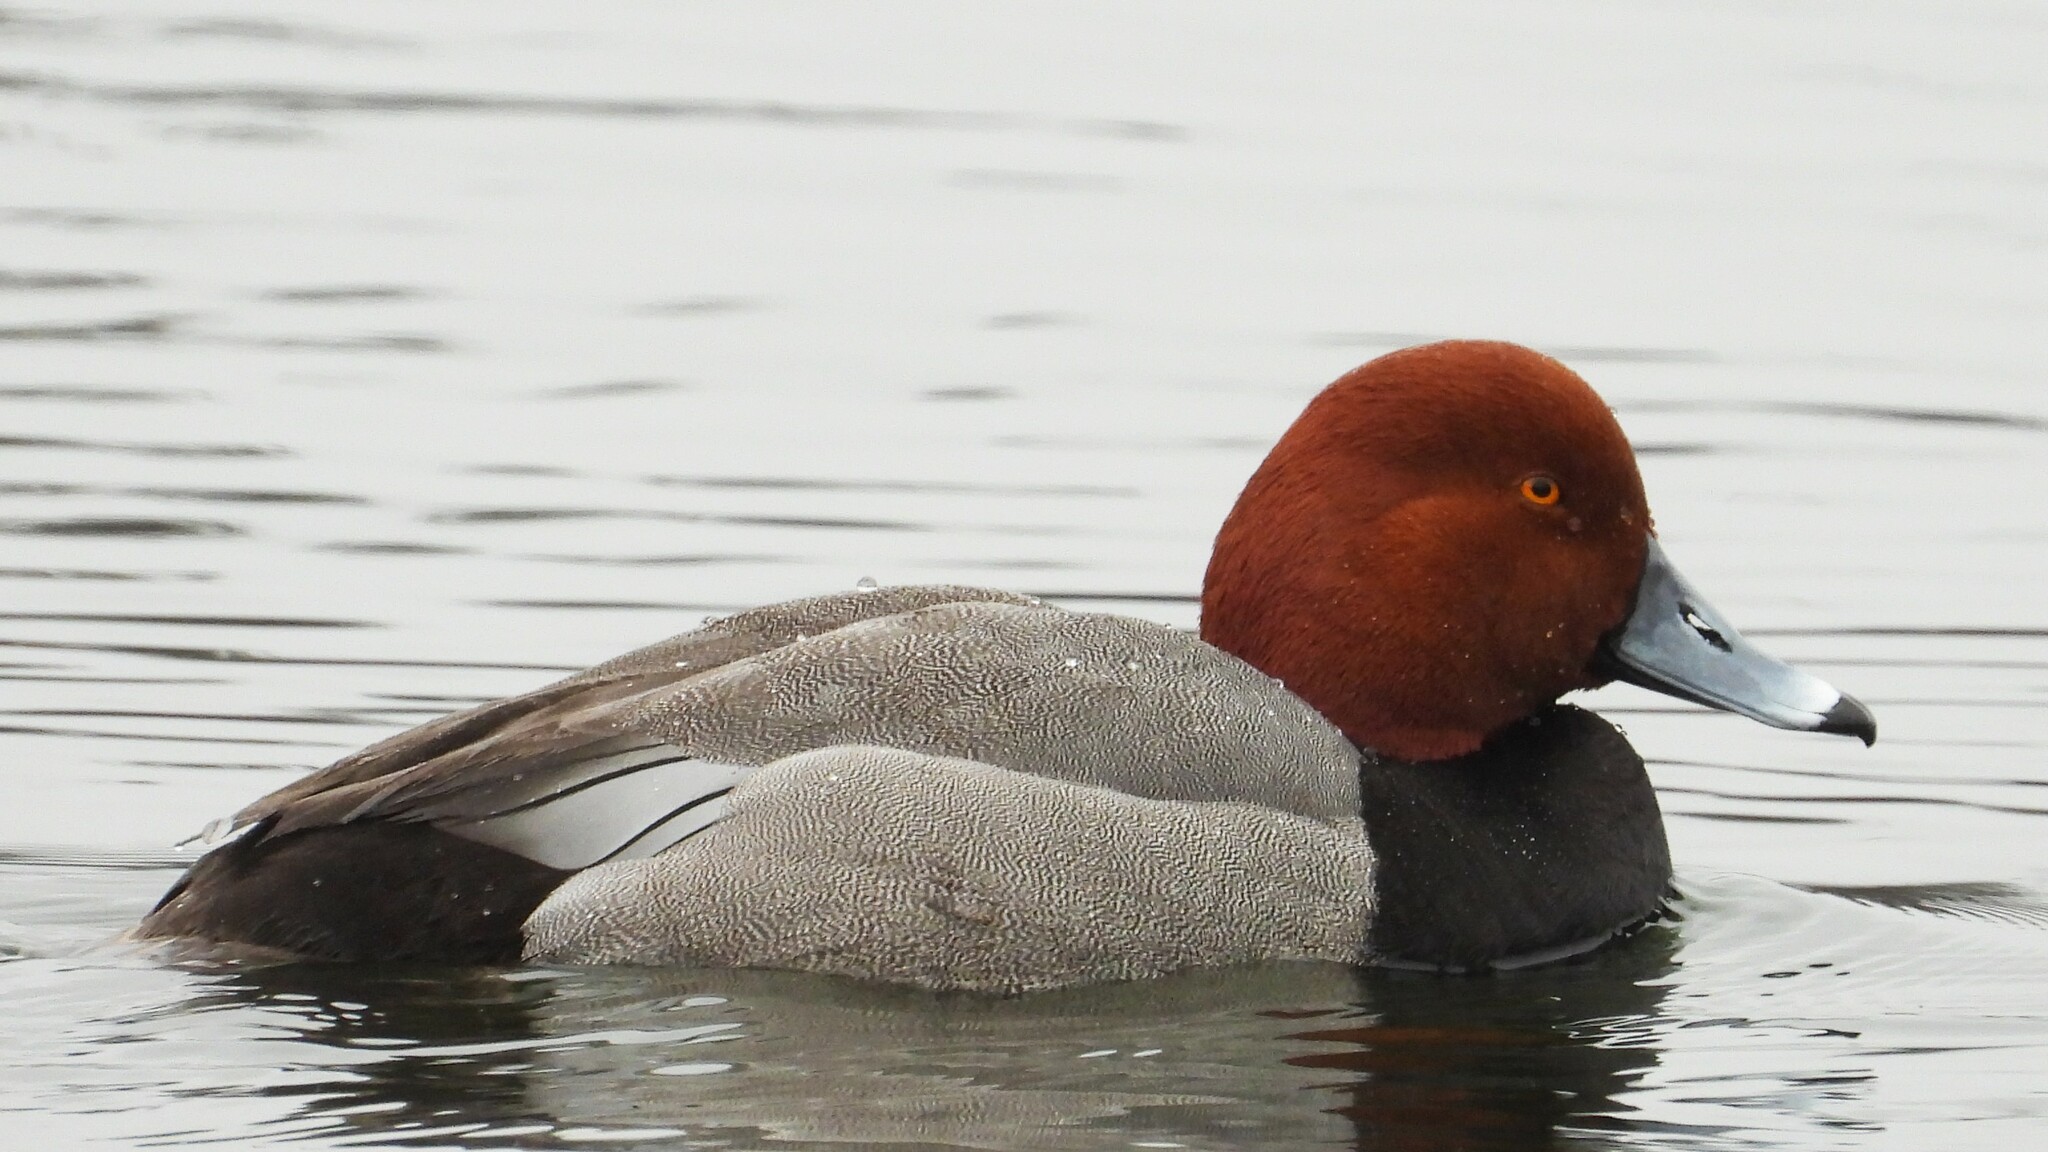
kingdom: Animalia
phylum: Chordata
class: Aves
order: Anseriformes
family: Anatidae
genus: Aythya
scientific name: Aythya americana
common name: Redhead
